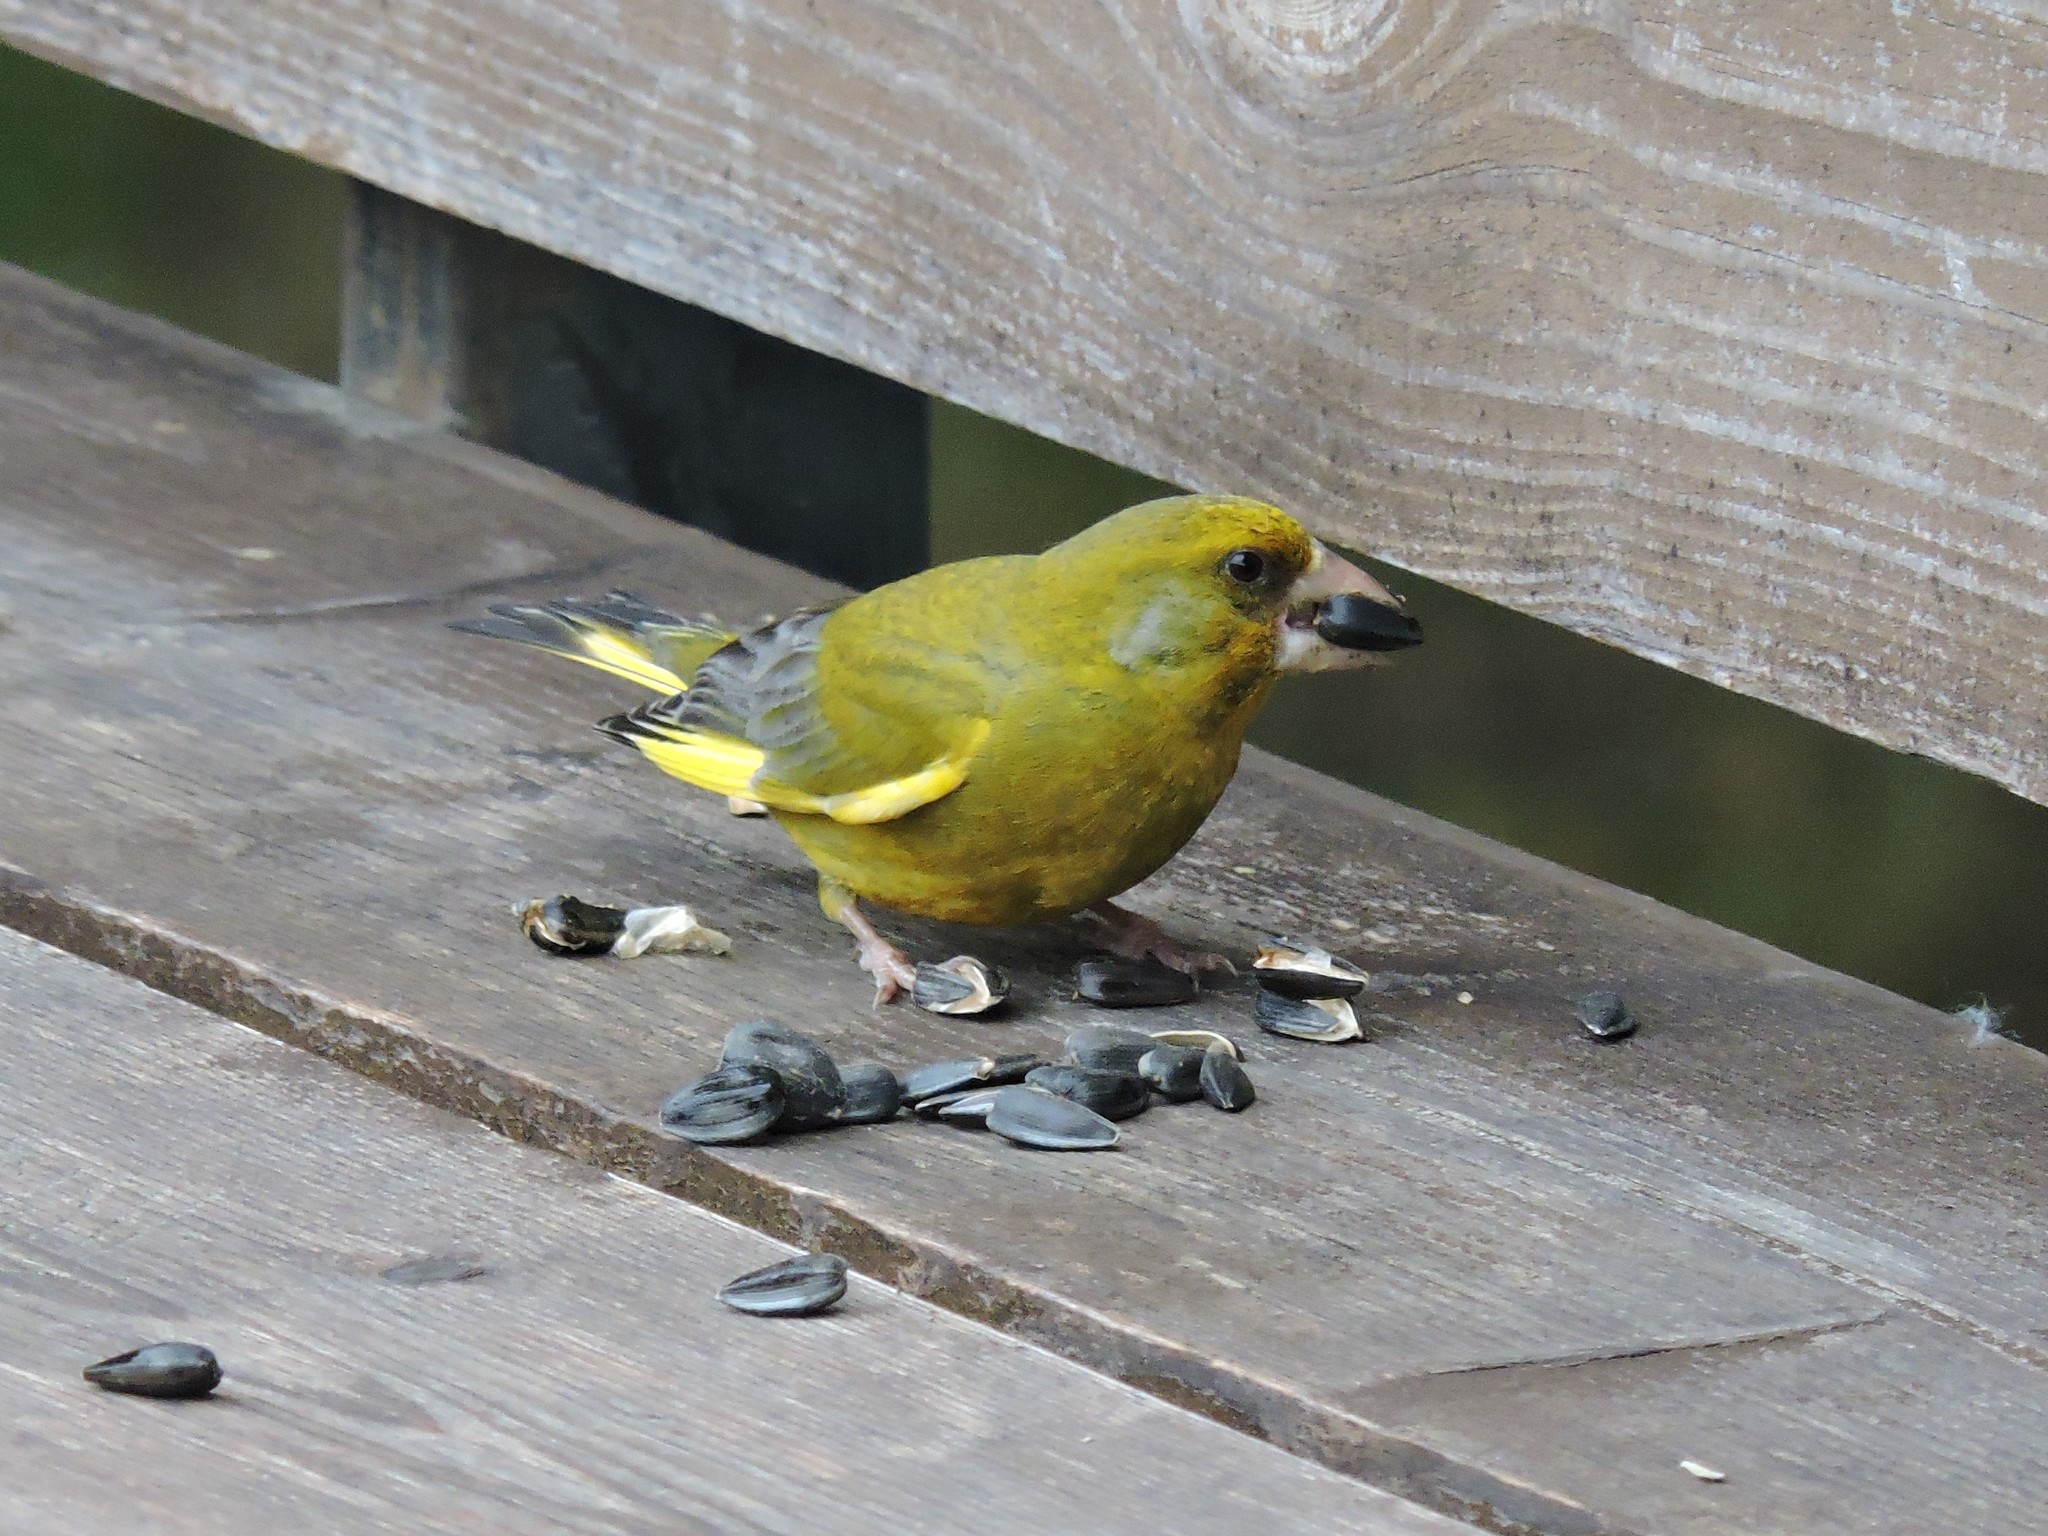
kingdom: Plantae
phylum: Tracheophyta
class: Liliopsida
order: Poales
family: Poaceae
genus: Chloris
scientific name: Chloris chloris
